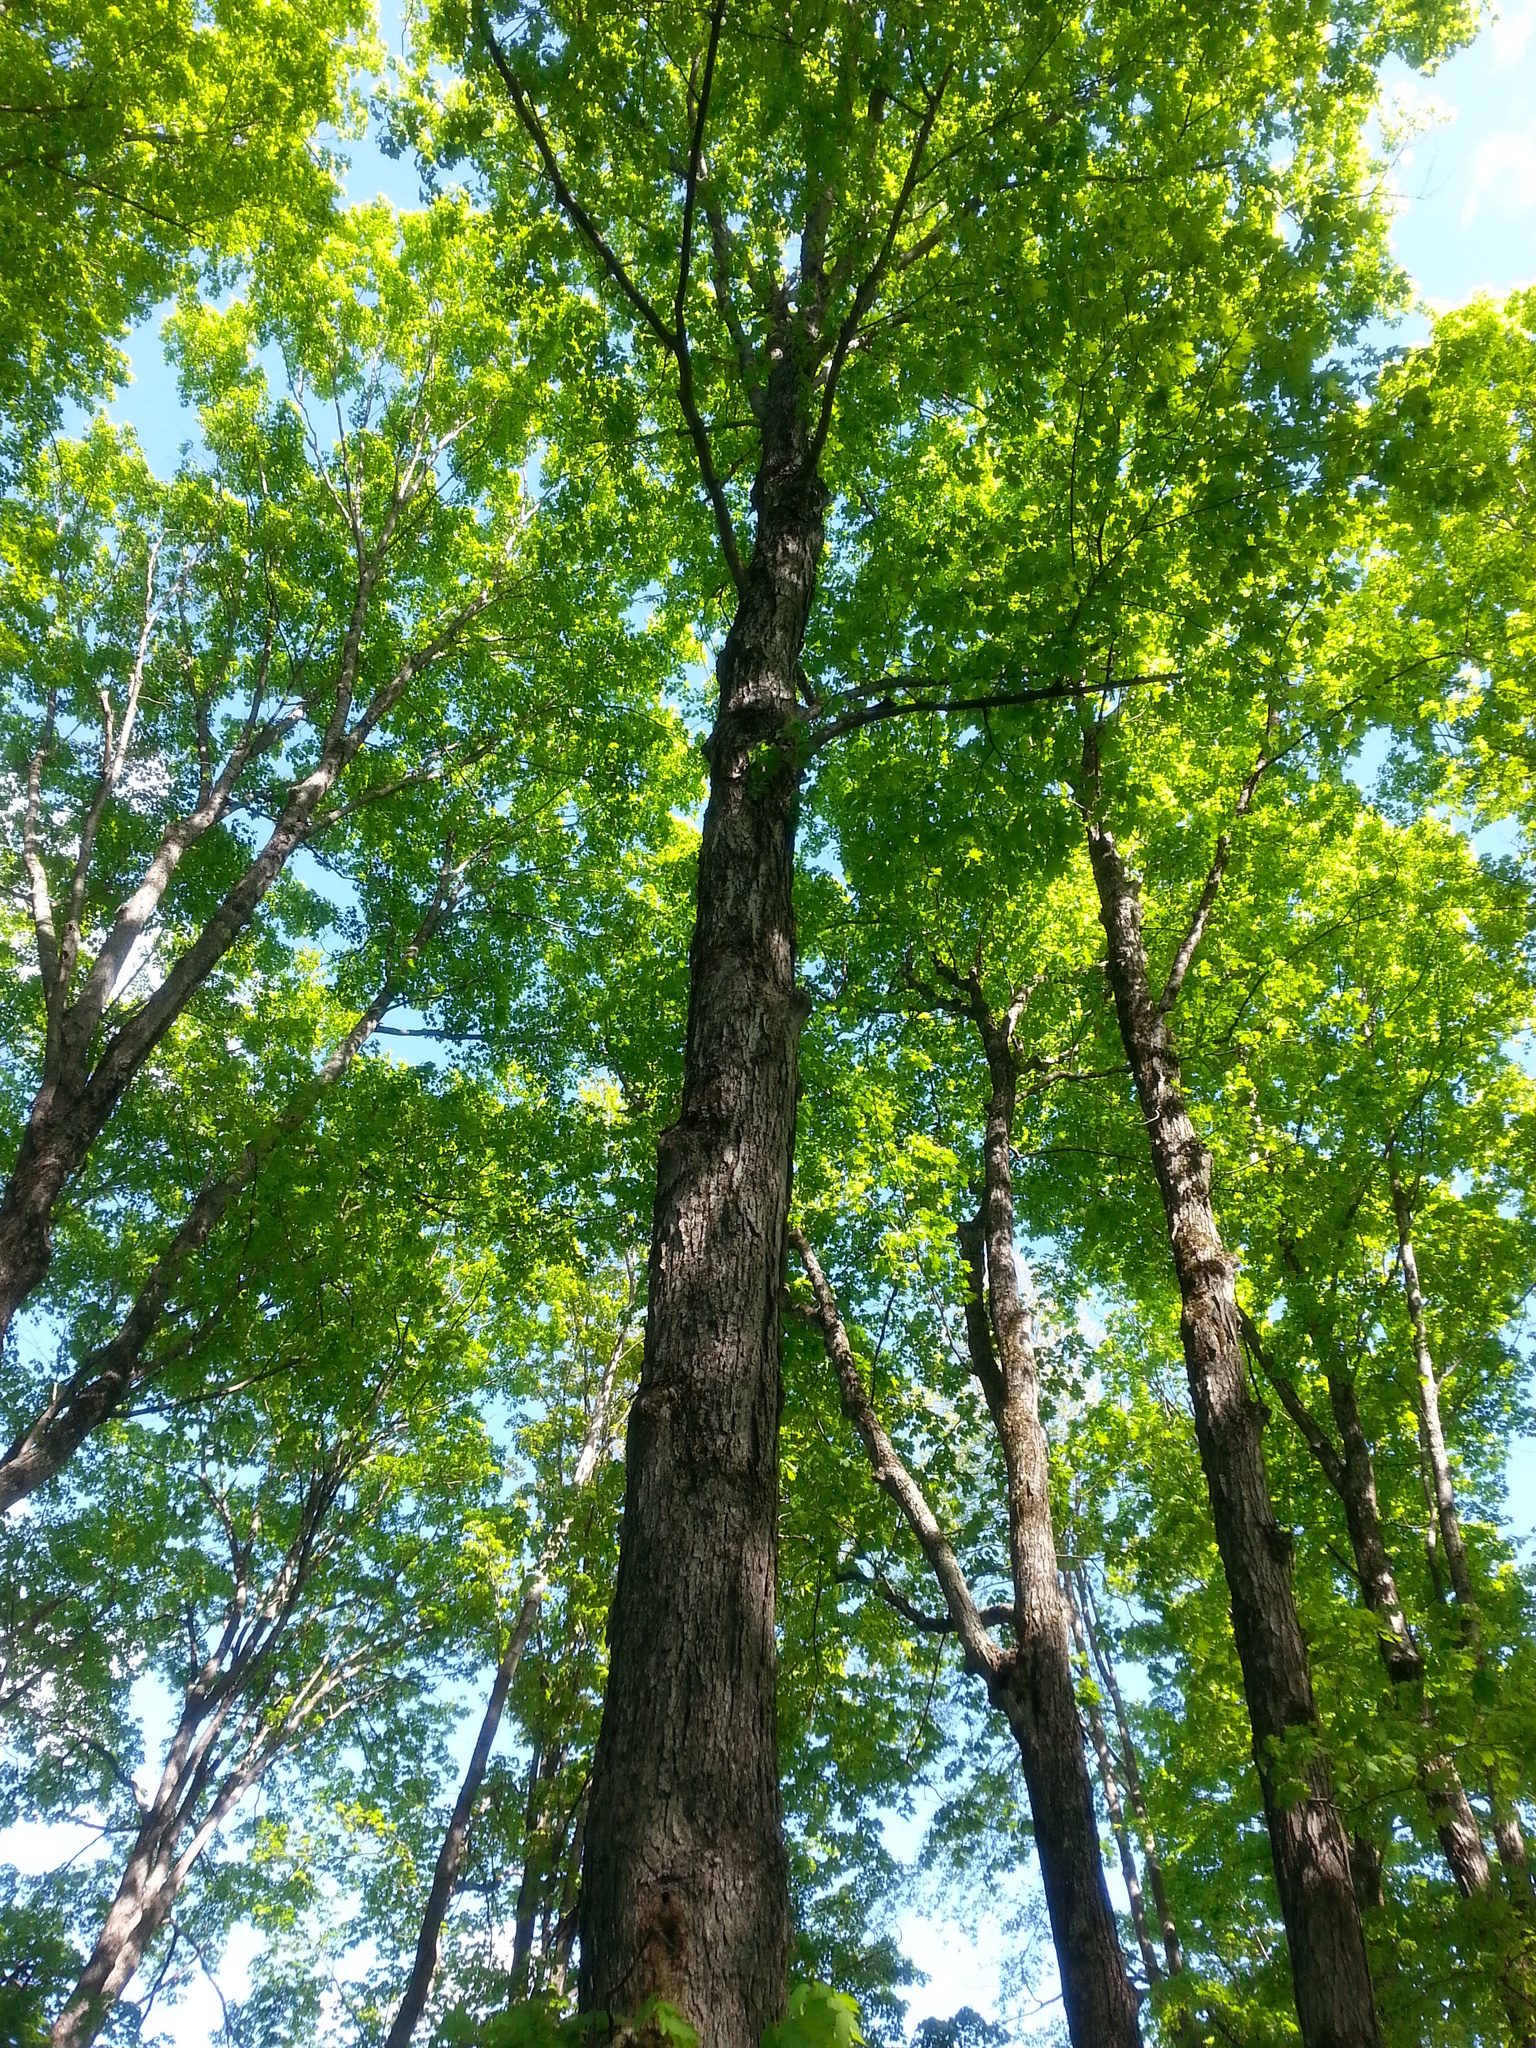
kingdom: Plantae
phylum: Tracheophyta
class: Magnoliopsida
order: Sapindales
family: Sapindaceae
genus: Acer
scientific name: Acer saccharum
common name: Sugar maple
